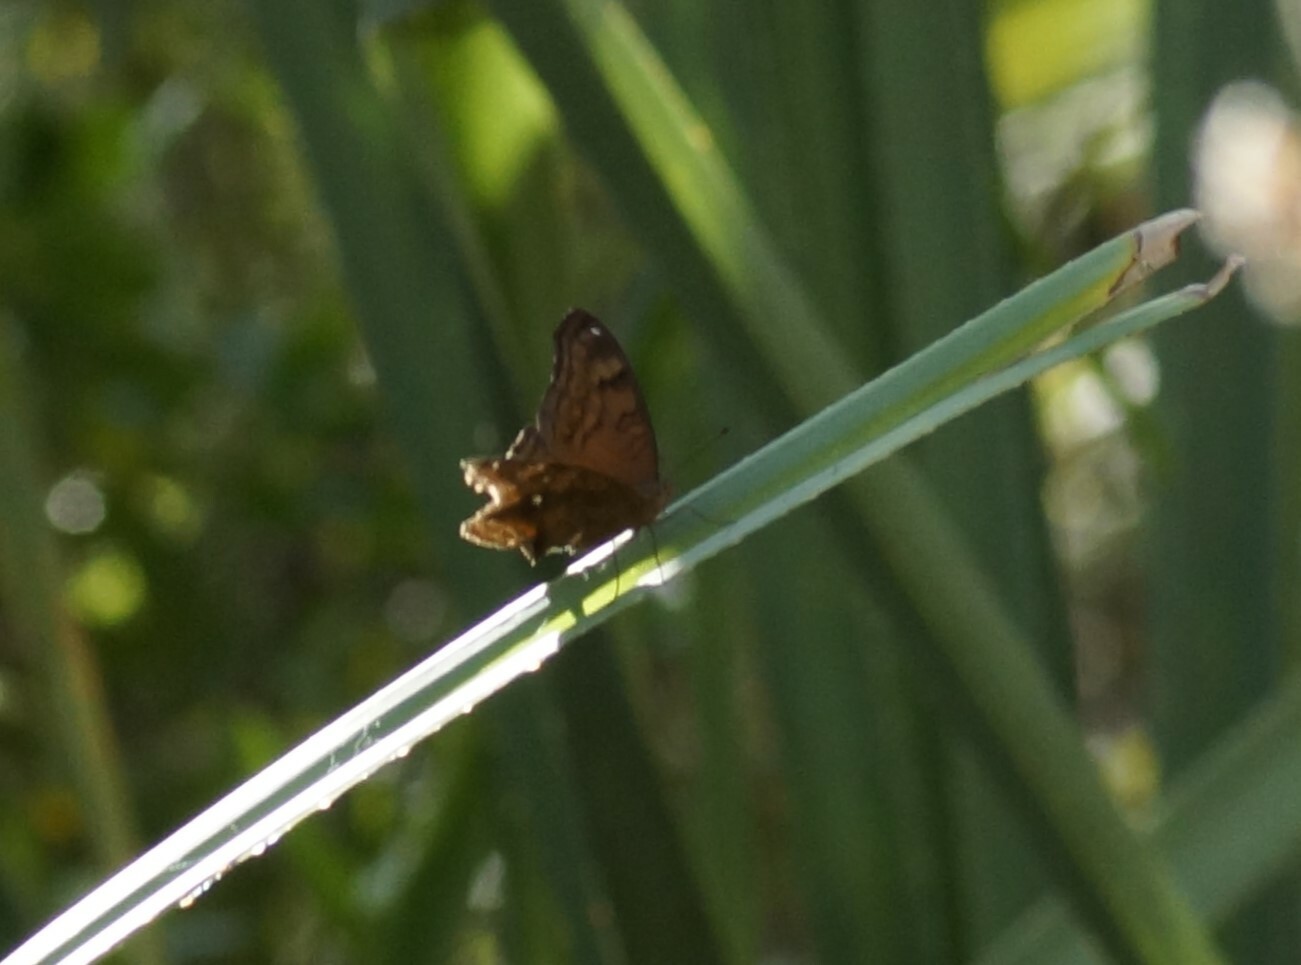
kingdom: Animalia
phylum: Arthropoda
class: Insecta
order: Lepidoptera
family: Nymphalidae
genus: Junonia
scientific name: Junonia hedonia
